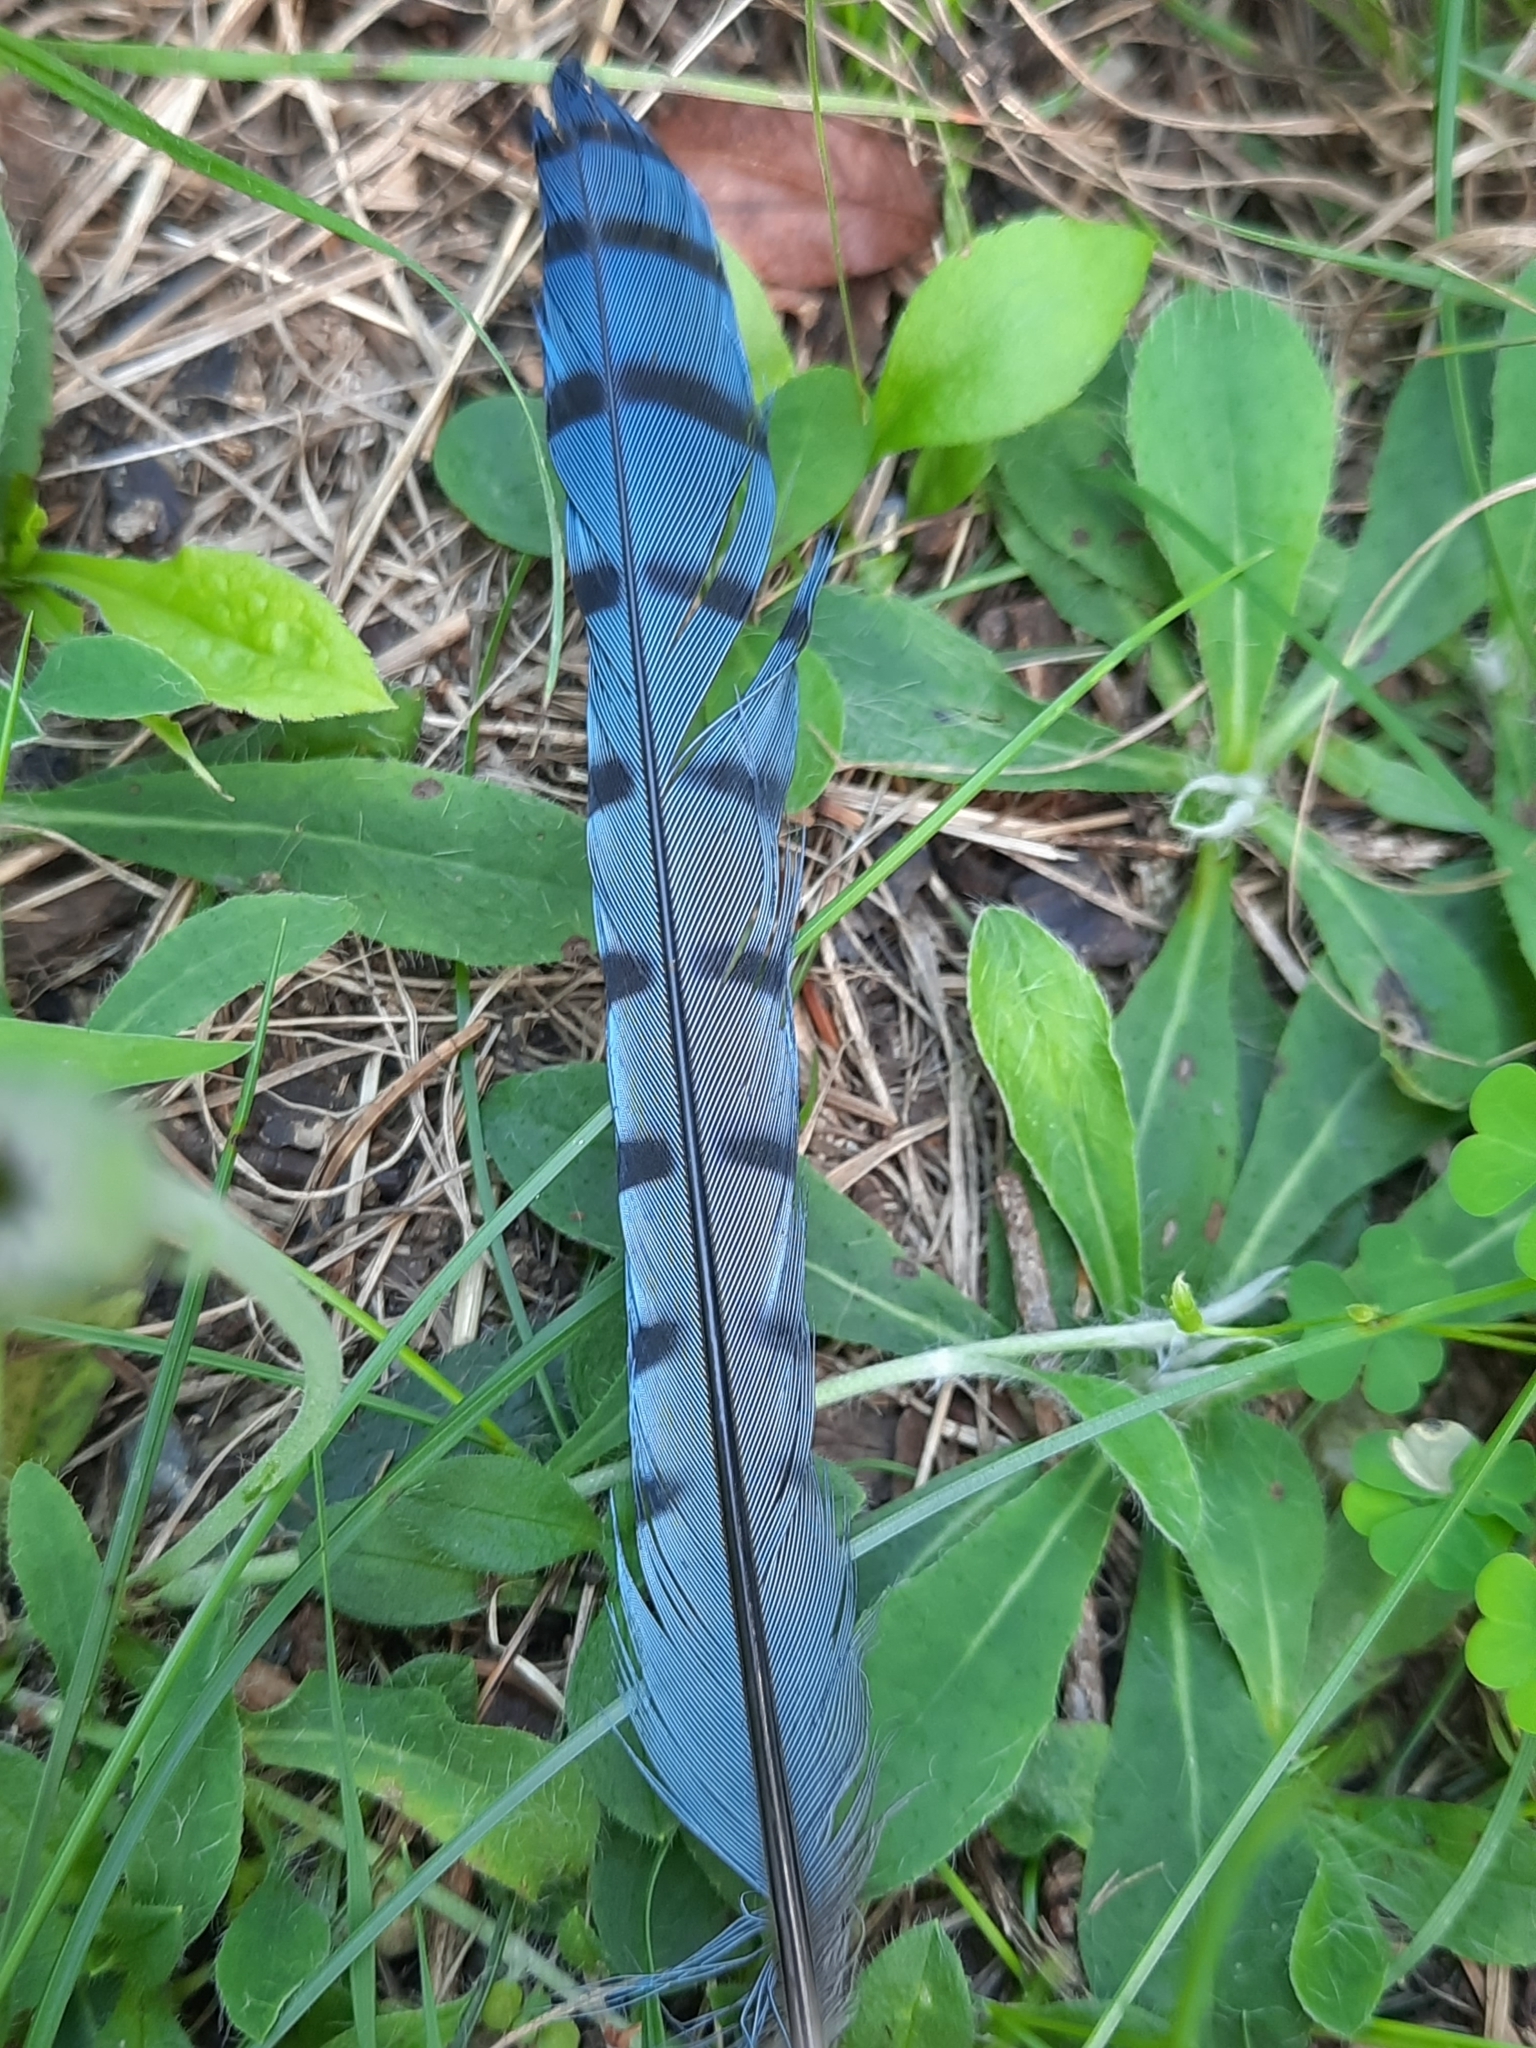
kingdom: Animalia
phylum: Chordata
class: Aves
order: Passeriformes
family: Corvidae
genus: Cyanocitta
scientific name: Cyanocitta cristata
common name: Blue jay
